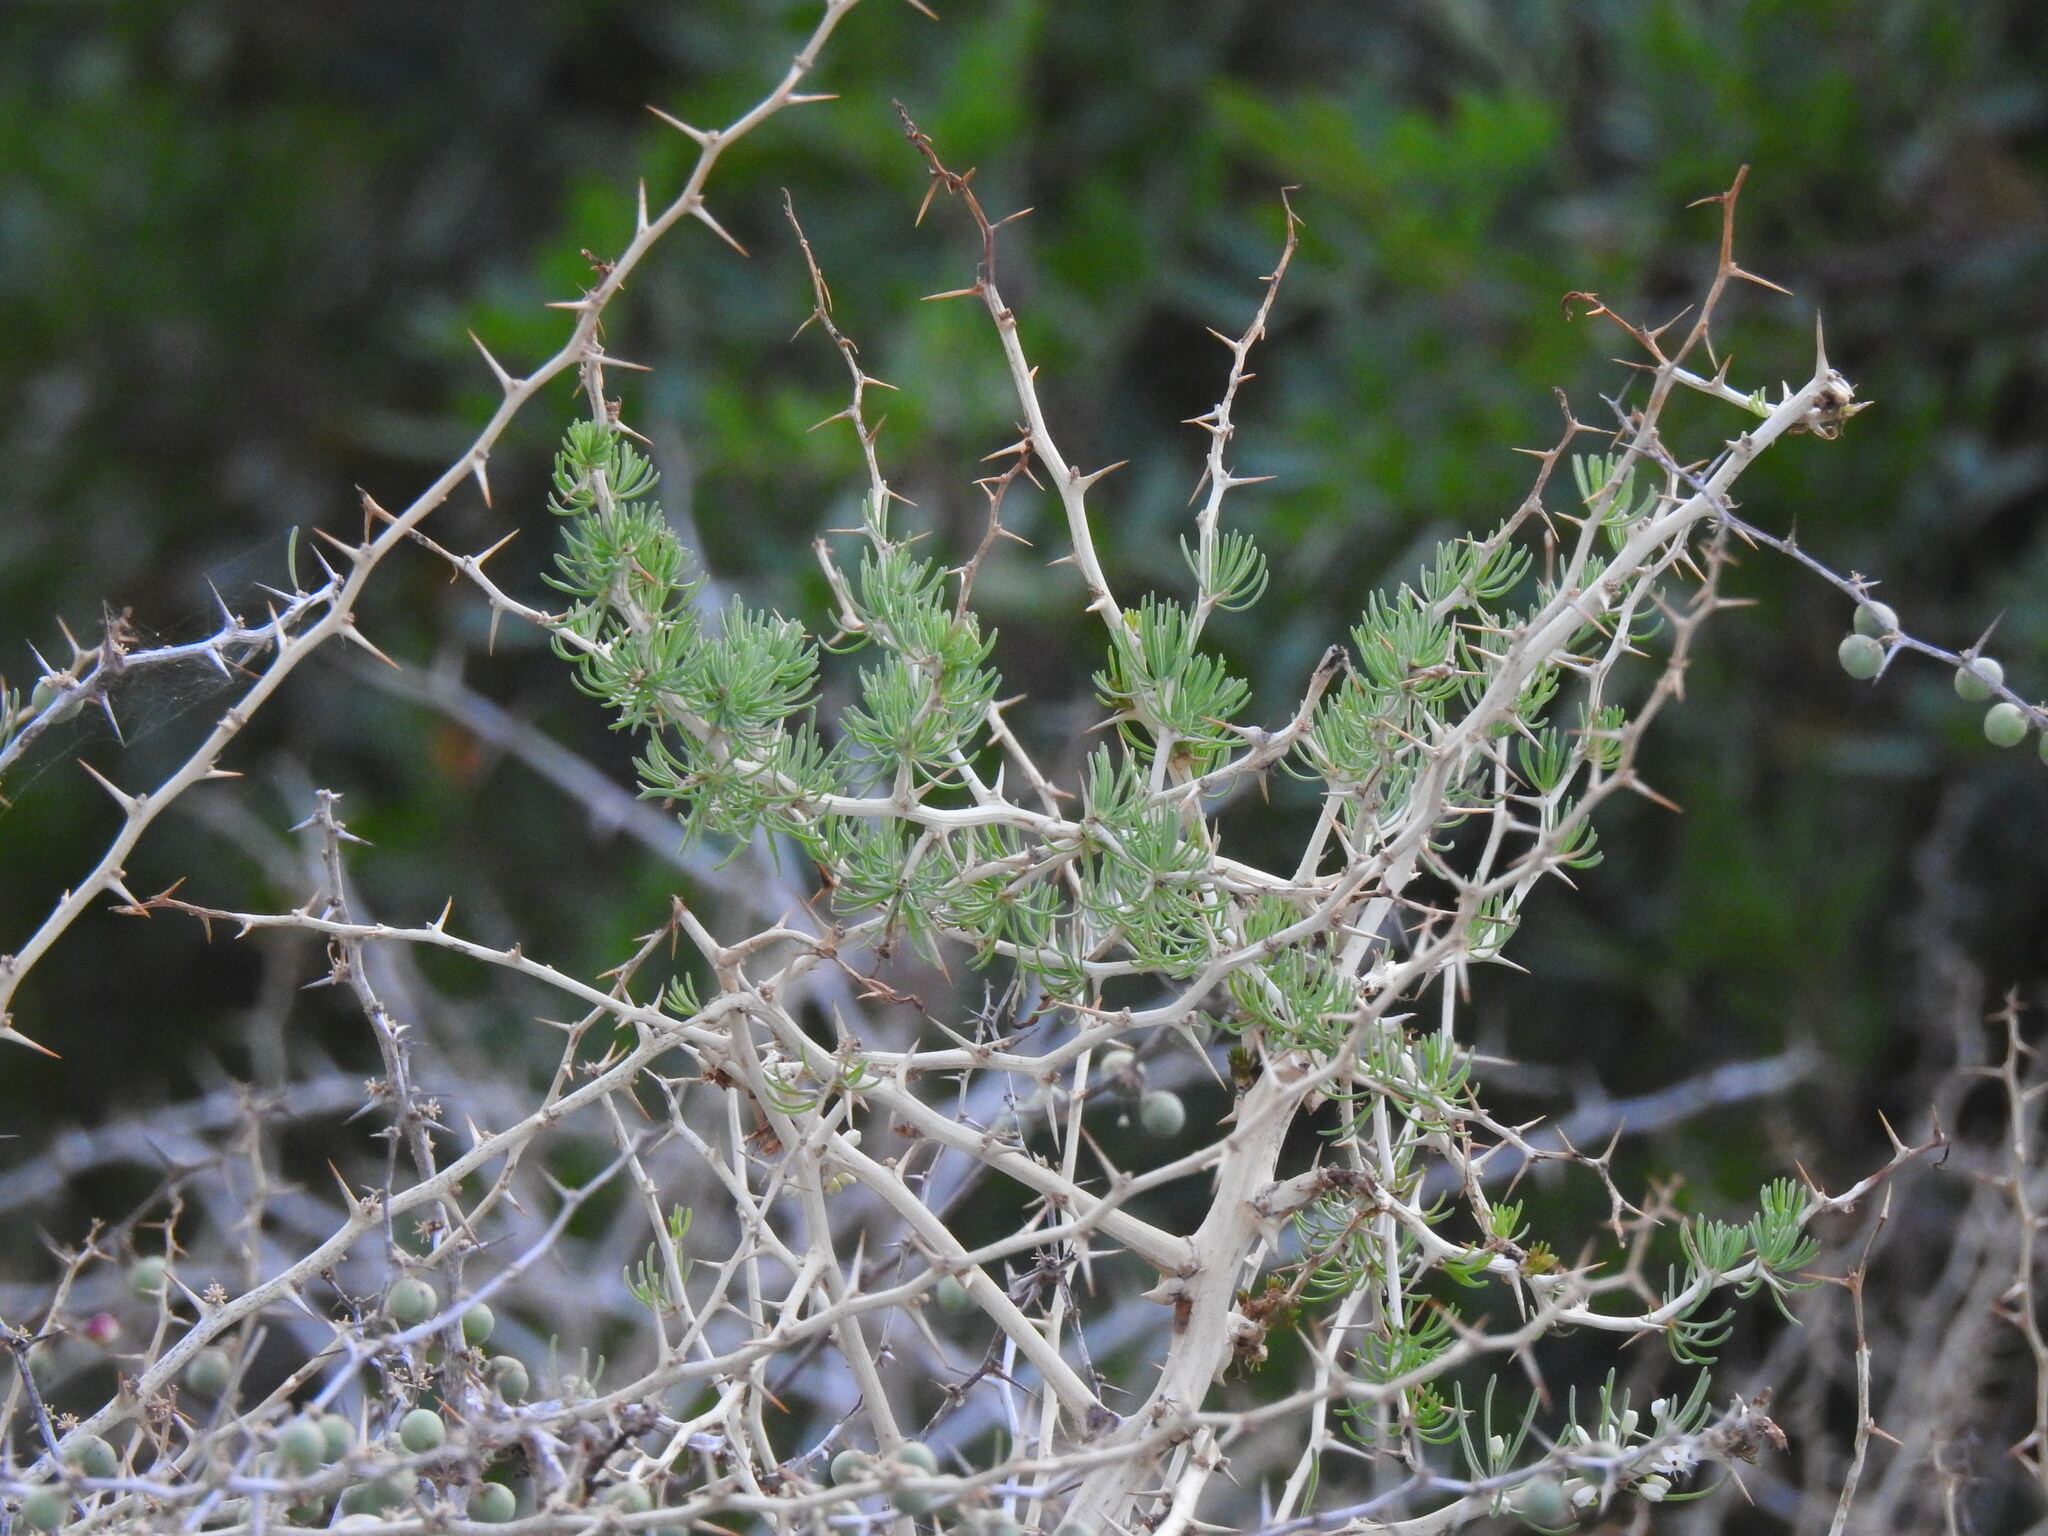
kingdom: Plantae
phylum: Tracheophyta
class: Liliopsida
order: Asparagales
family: Asparagaceae
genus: Asparagus
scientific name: Asparagus albus
